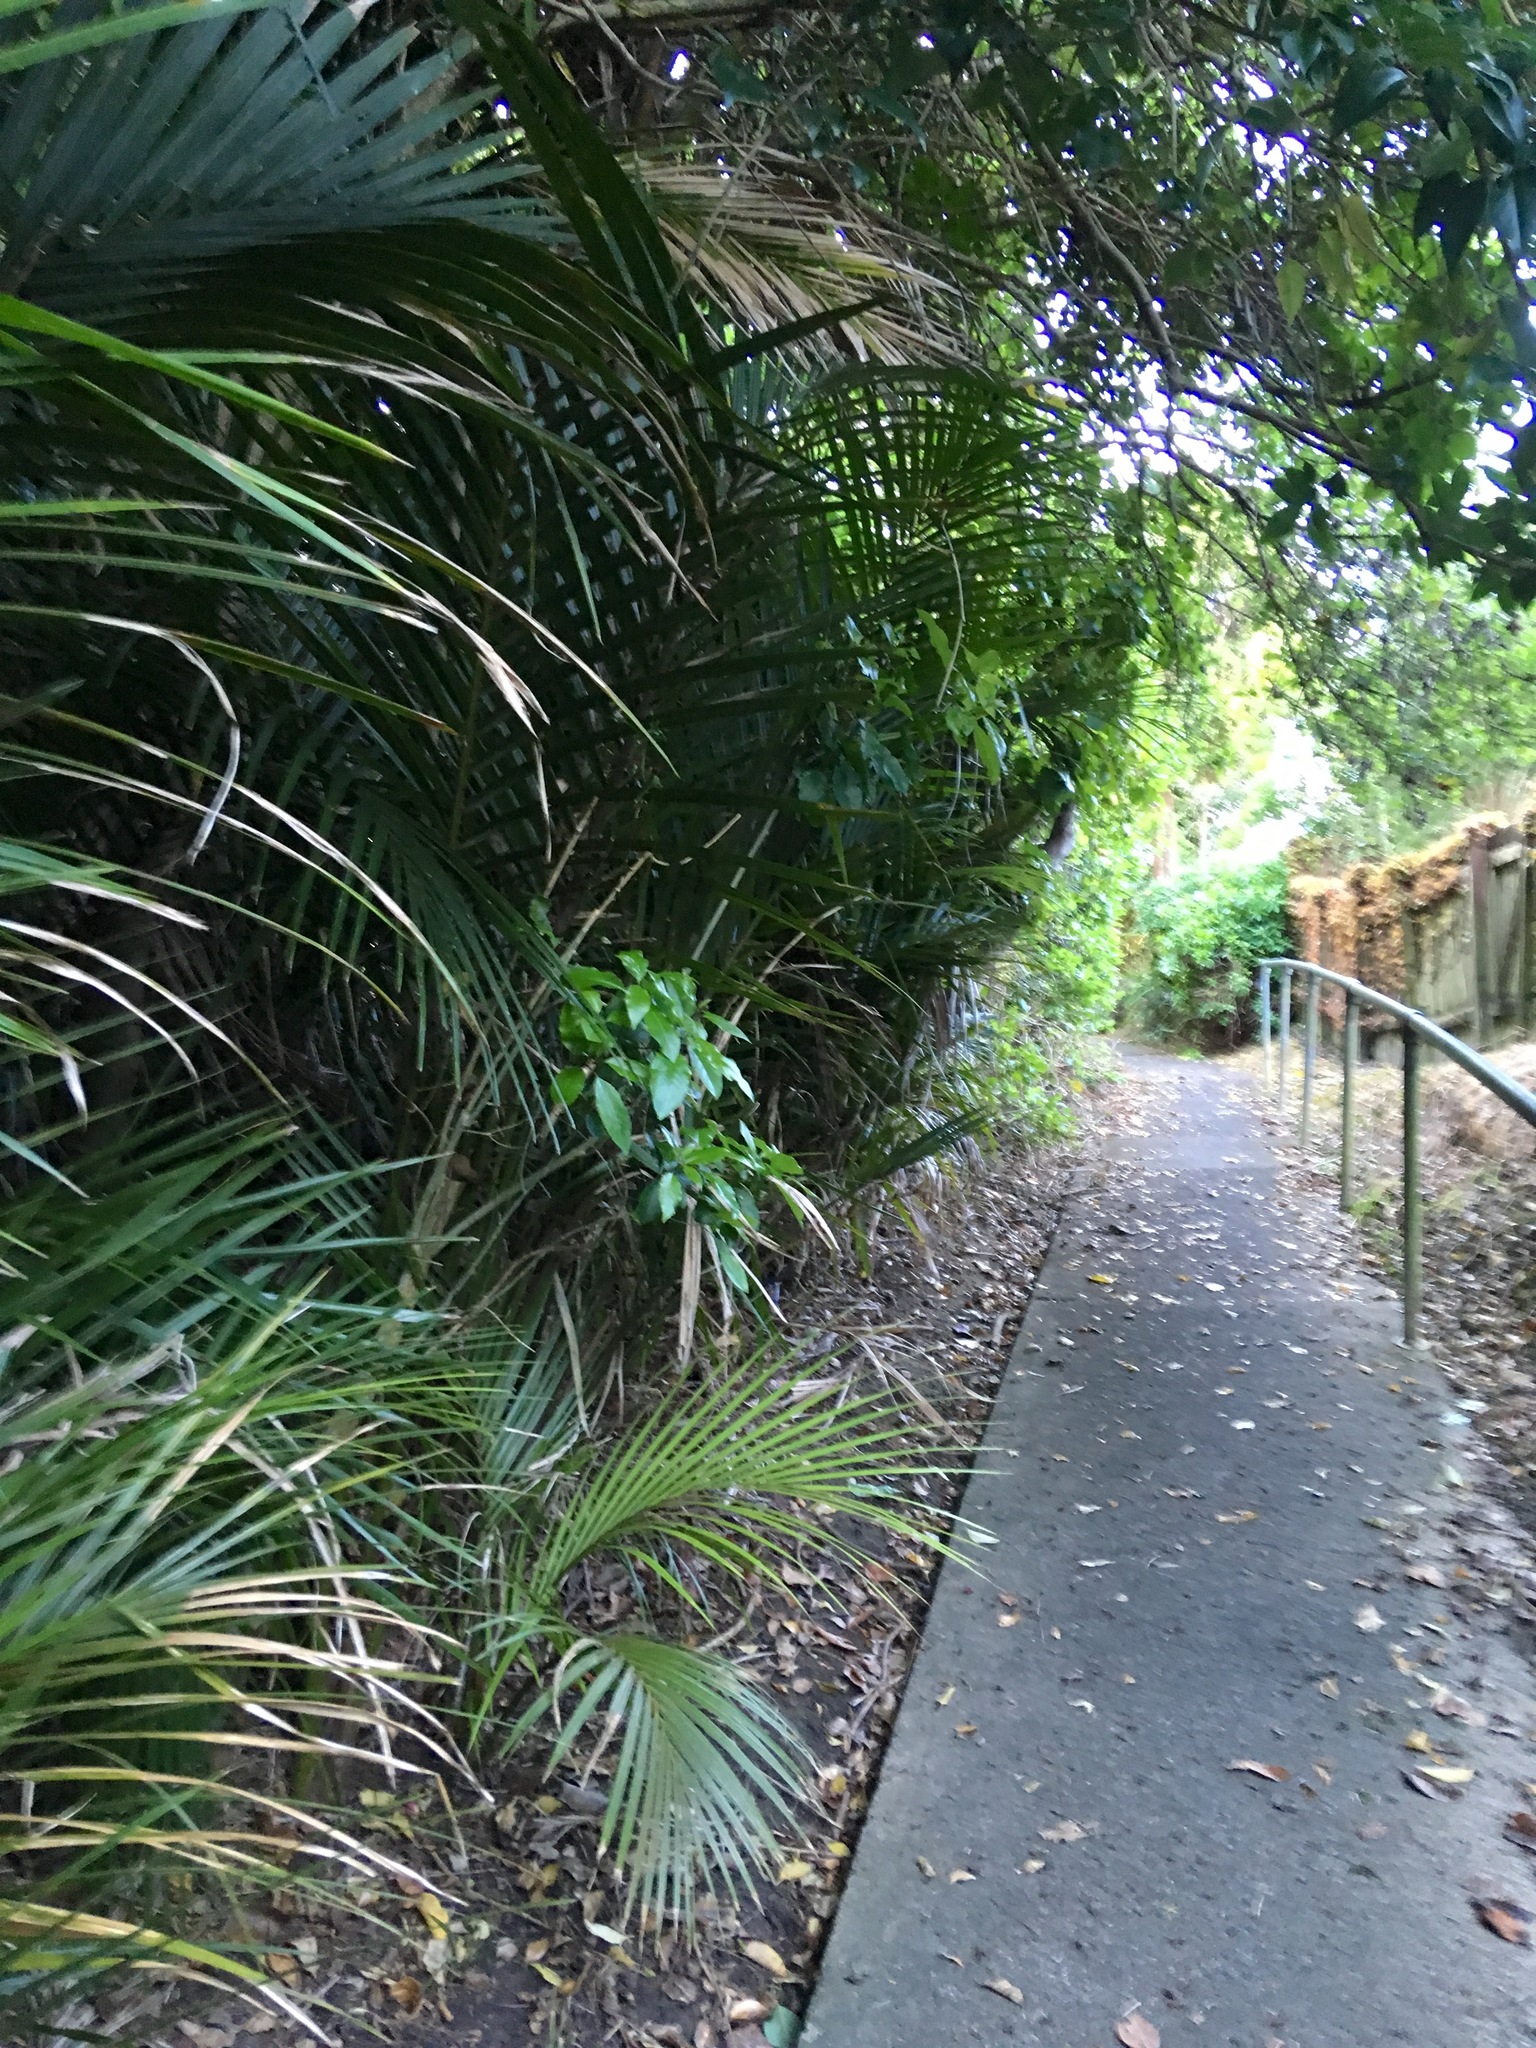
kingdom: Plantae
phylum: Tracheophyta
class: Liliopsida
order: Arecales
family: Arecaceae
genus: Rhopalostylis
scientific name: Rhopalostylis sapida
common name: Feather-duster palm
